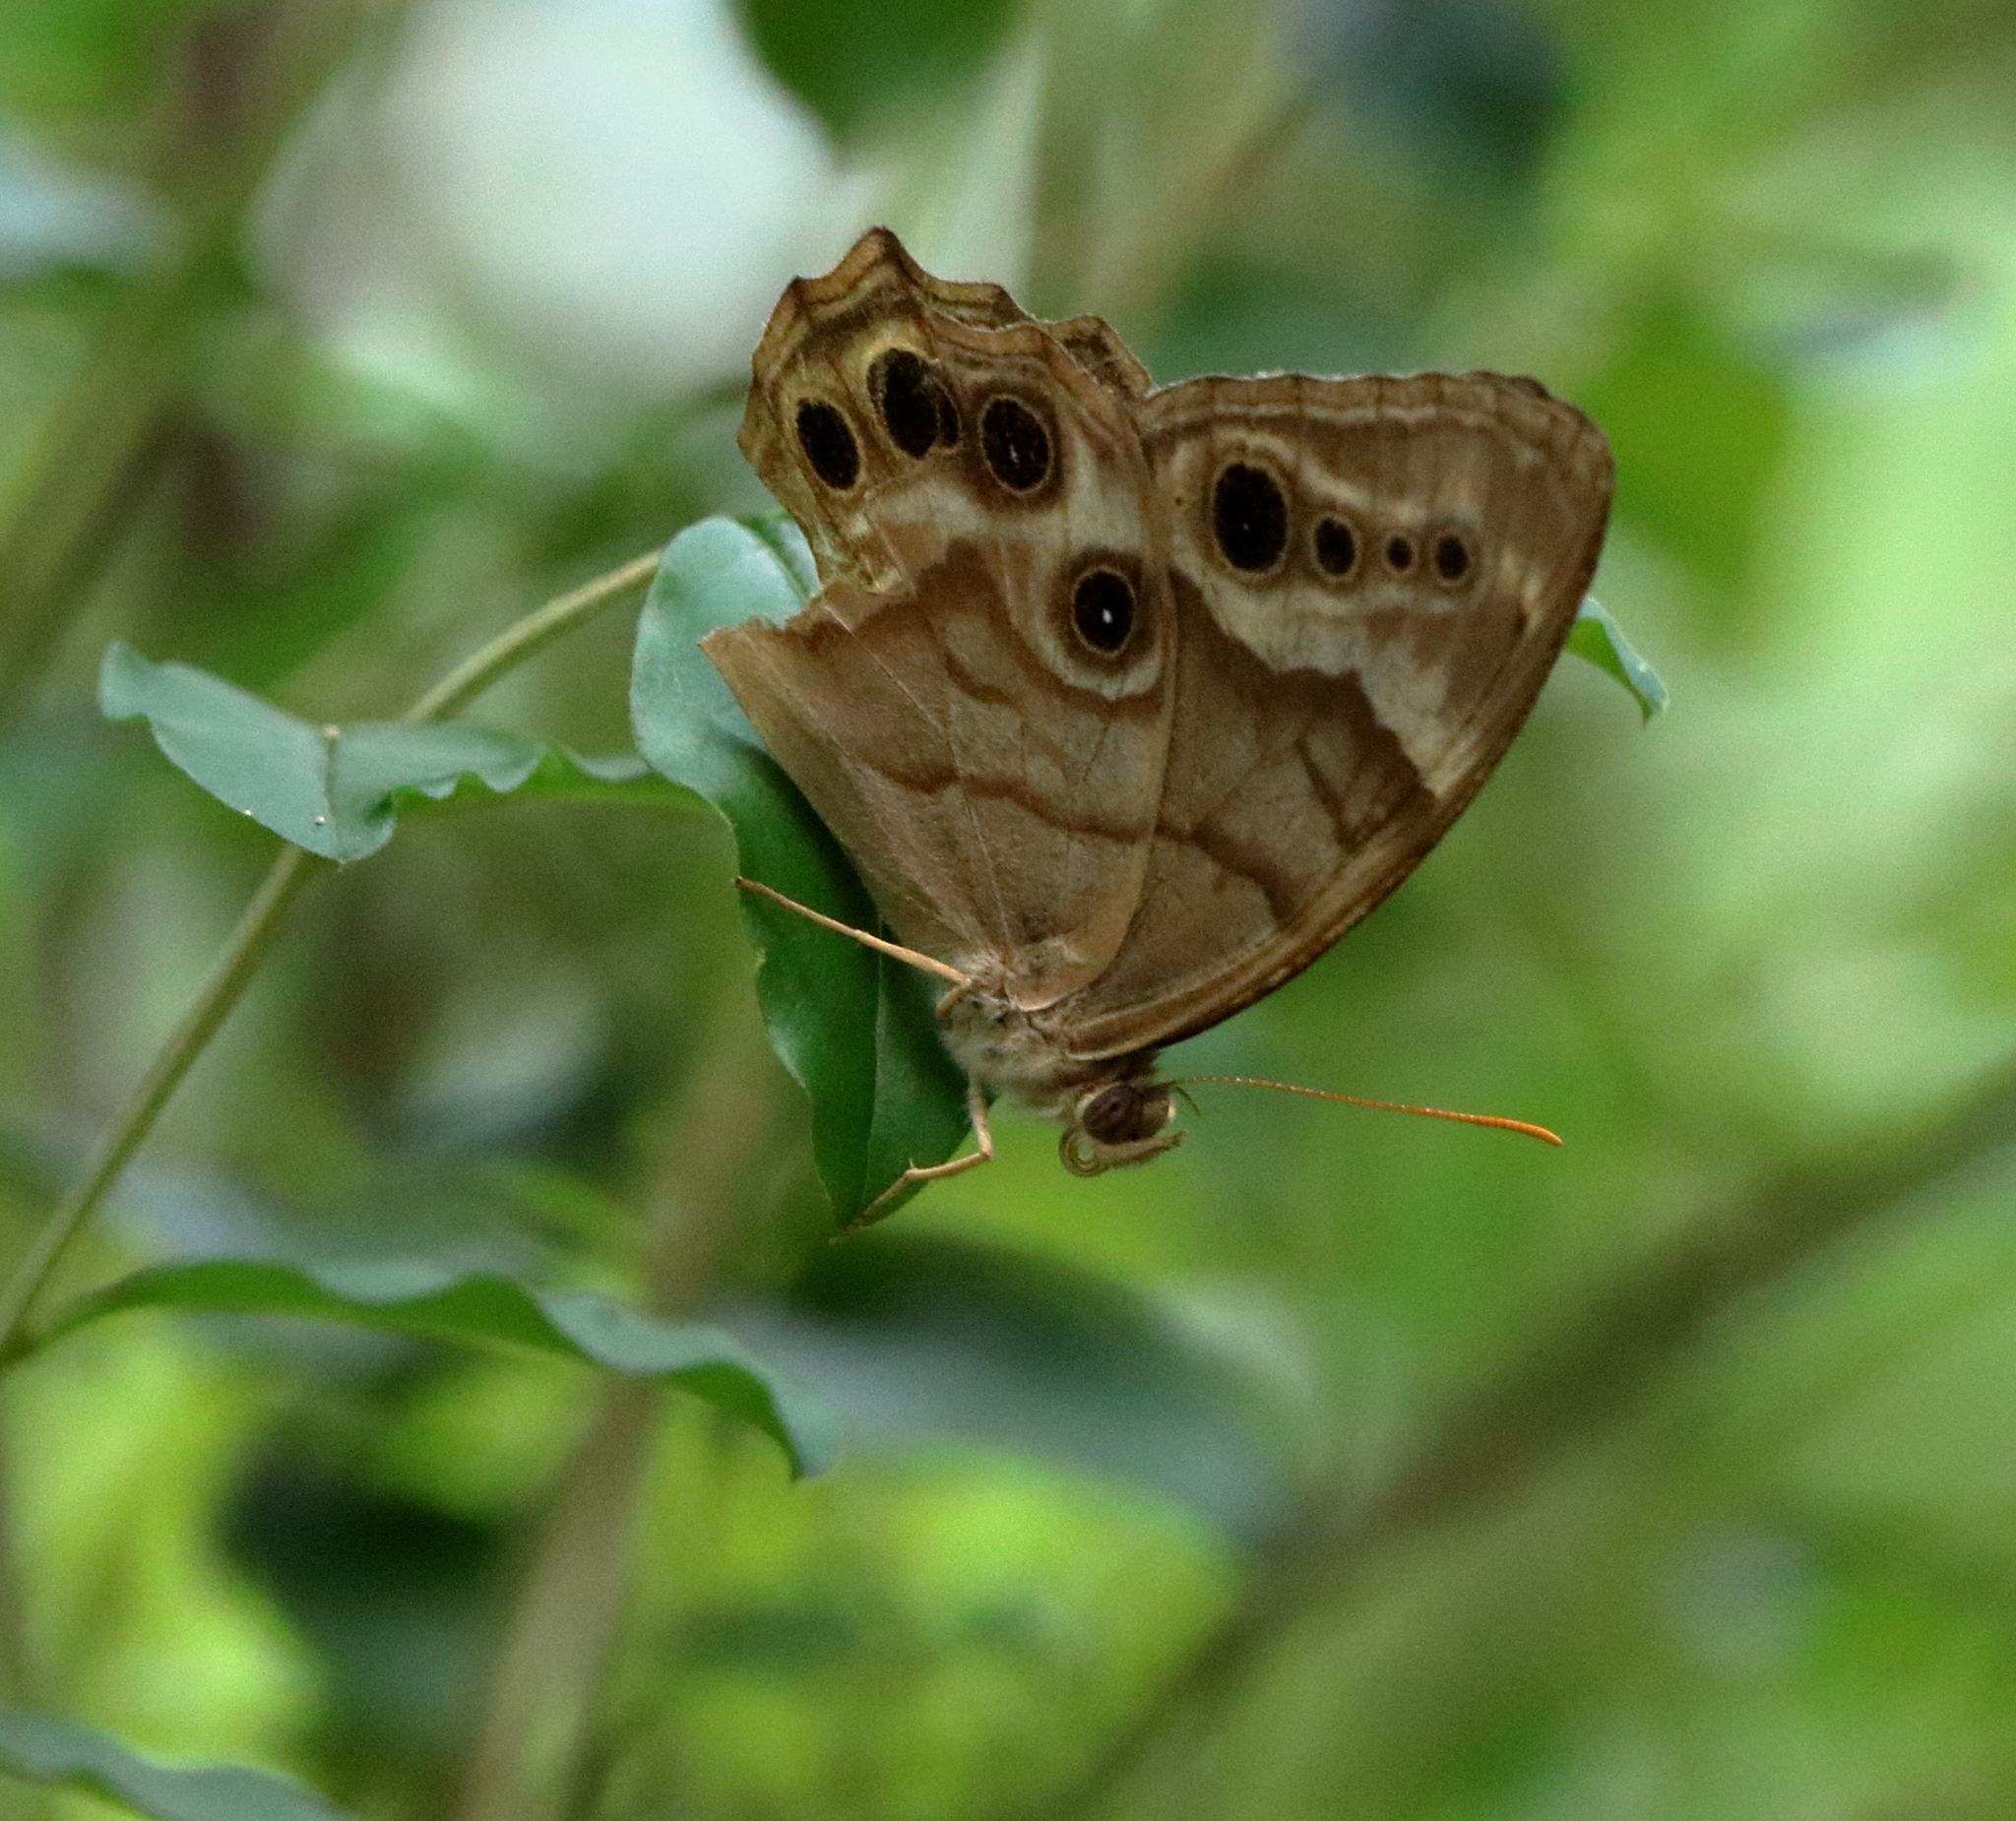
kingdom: Animalia
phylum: Arthropoda
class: Insecta
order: Lepidoptera
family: Nymphalidae
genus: Enodia
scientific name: Enodia portlandia
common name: Southern pearly-eye
